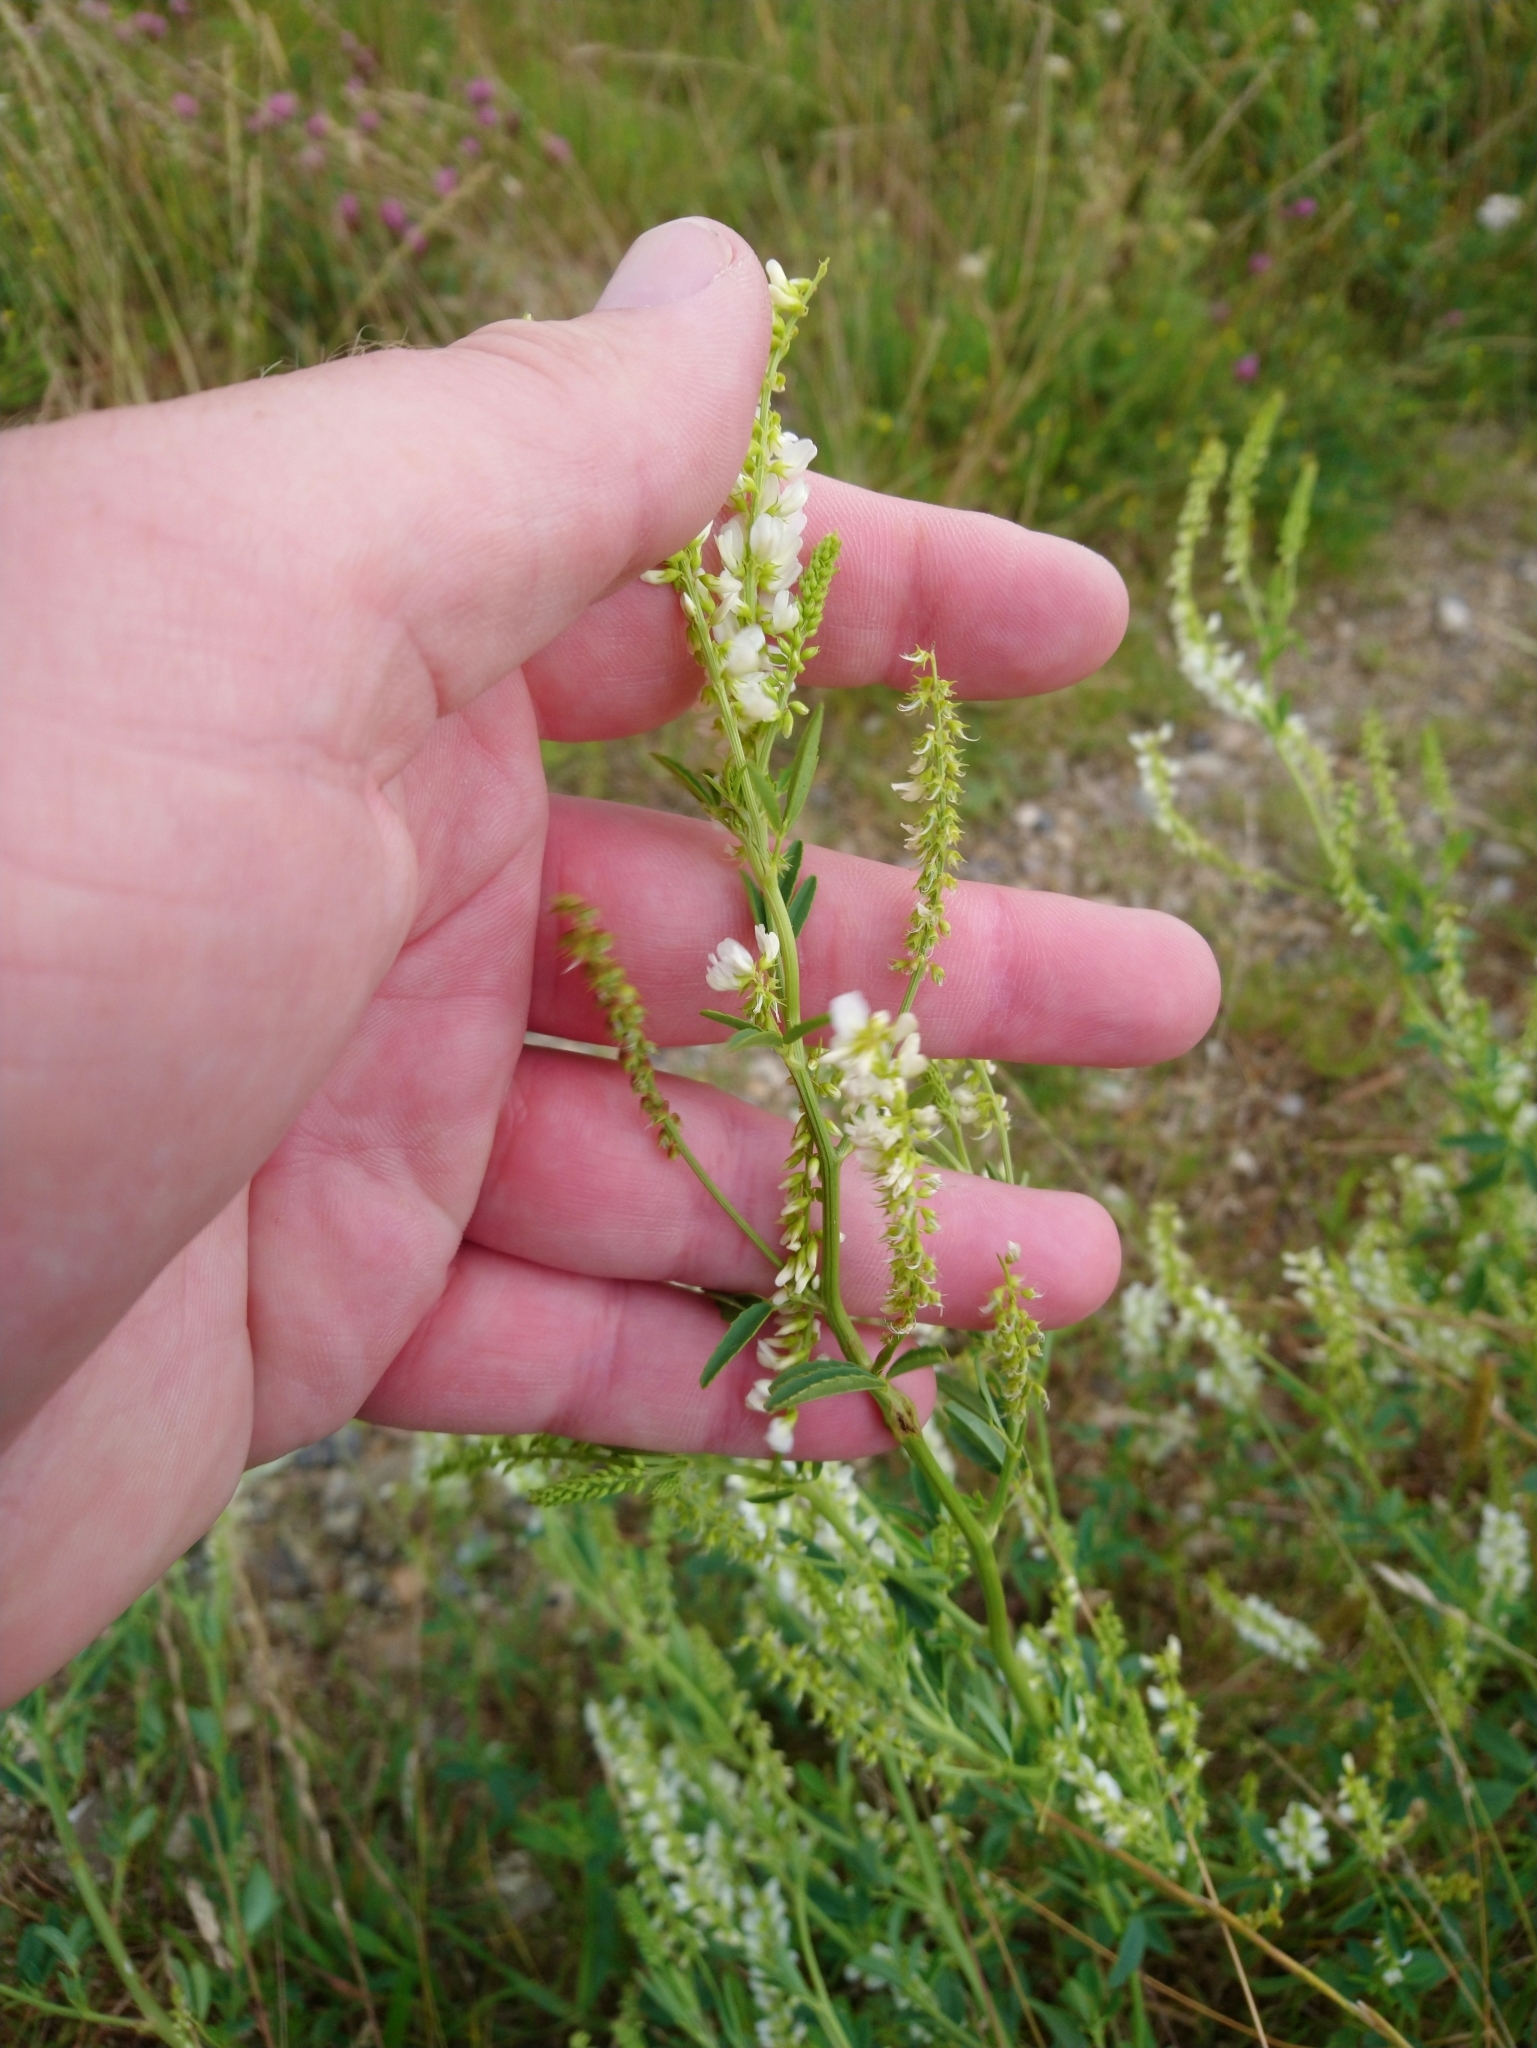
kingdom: Plantae
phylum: Tracheophyta
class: Magnoliopsida
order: Fabales
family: Fabaceae
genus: Melilotus
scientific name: Melilotus albus
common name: White melilot
